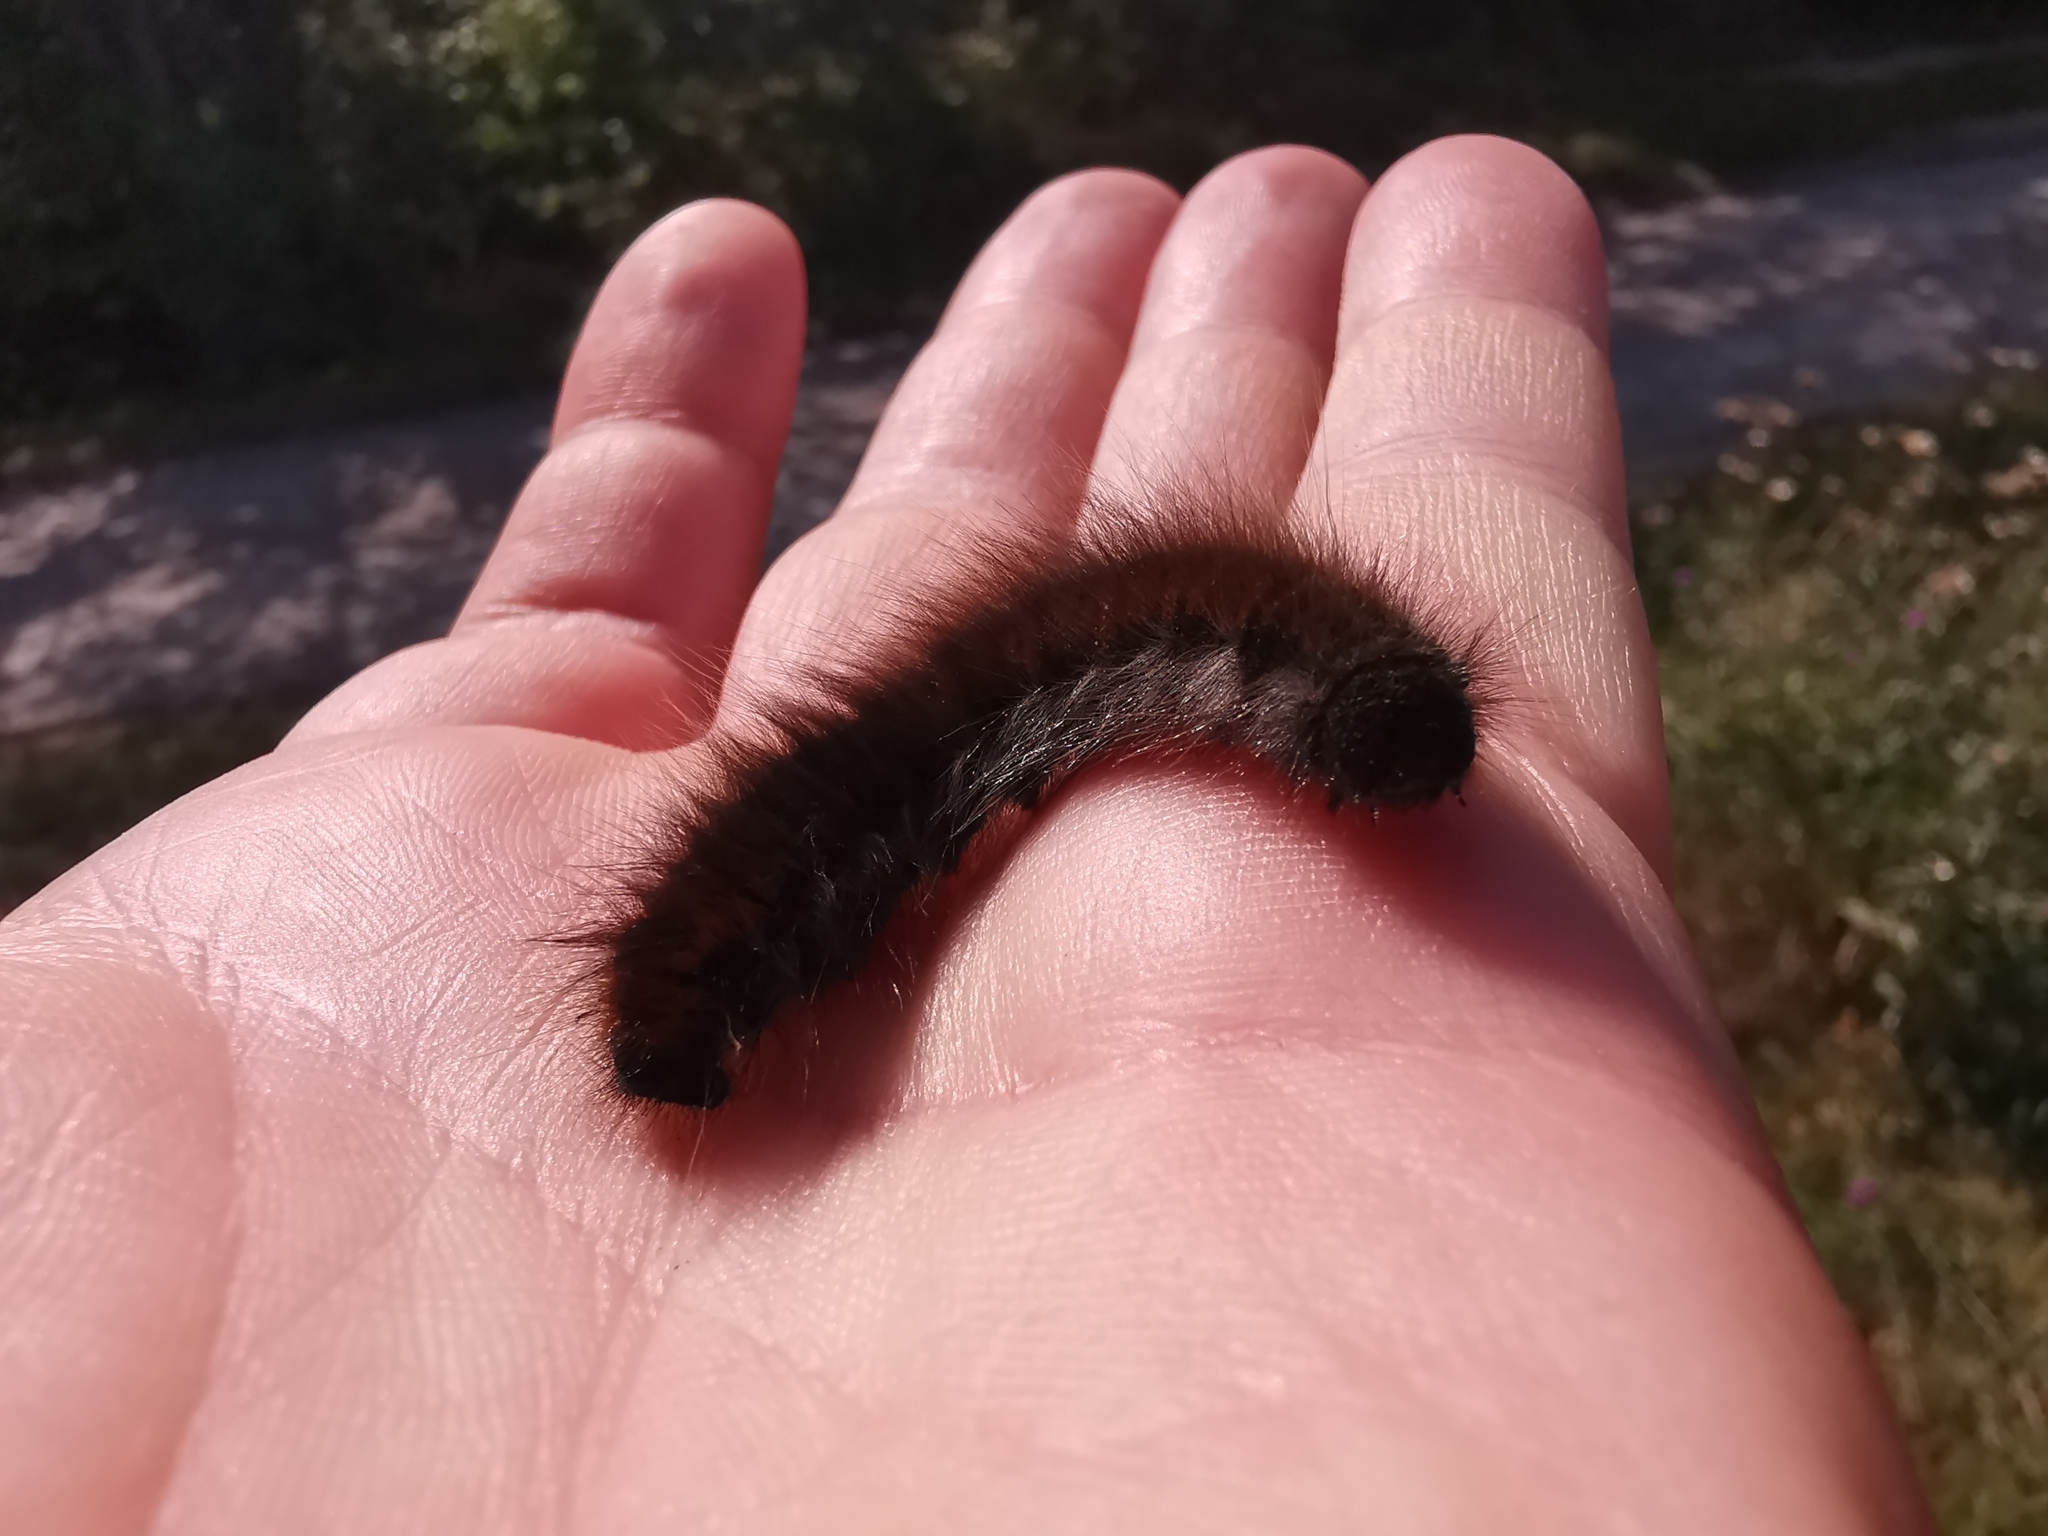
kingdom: Animalia
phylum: Arthropoda
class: Insecta
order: Lepidoptera
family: Lasiocampidae
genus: Macrothylacia
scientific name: Macrothylacia rubi
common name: Fox moth
